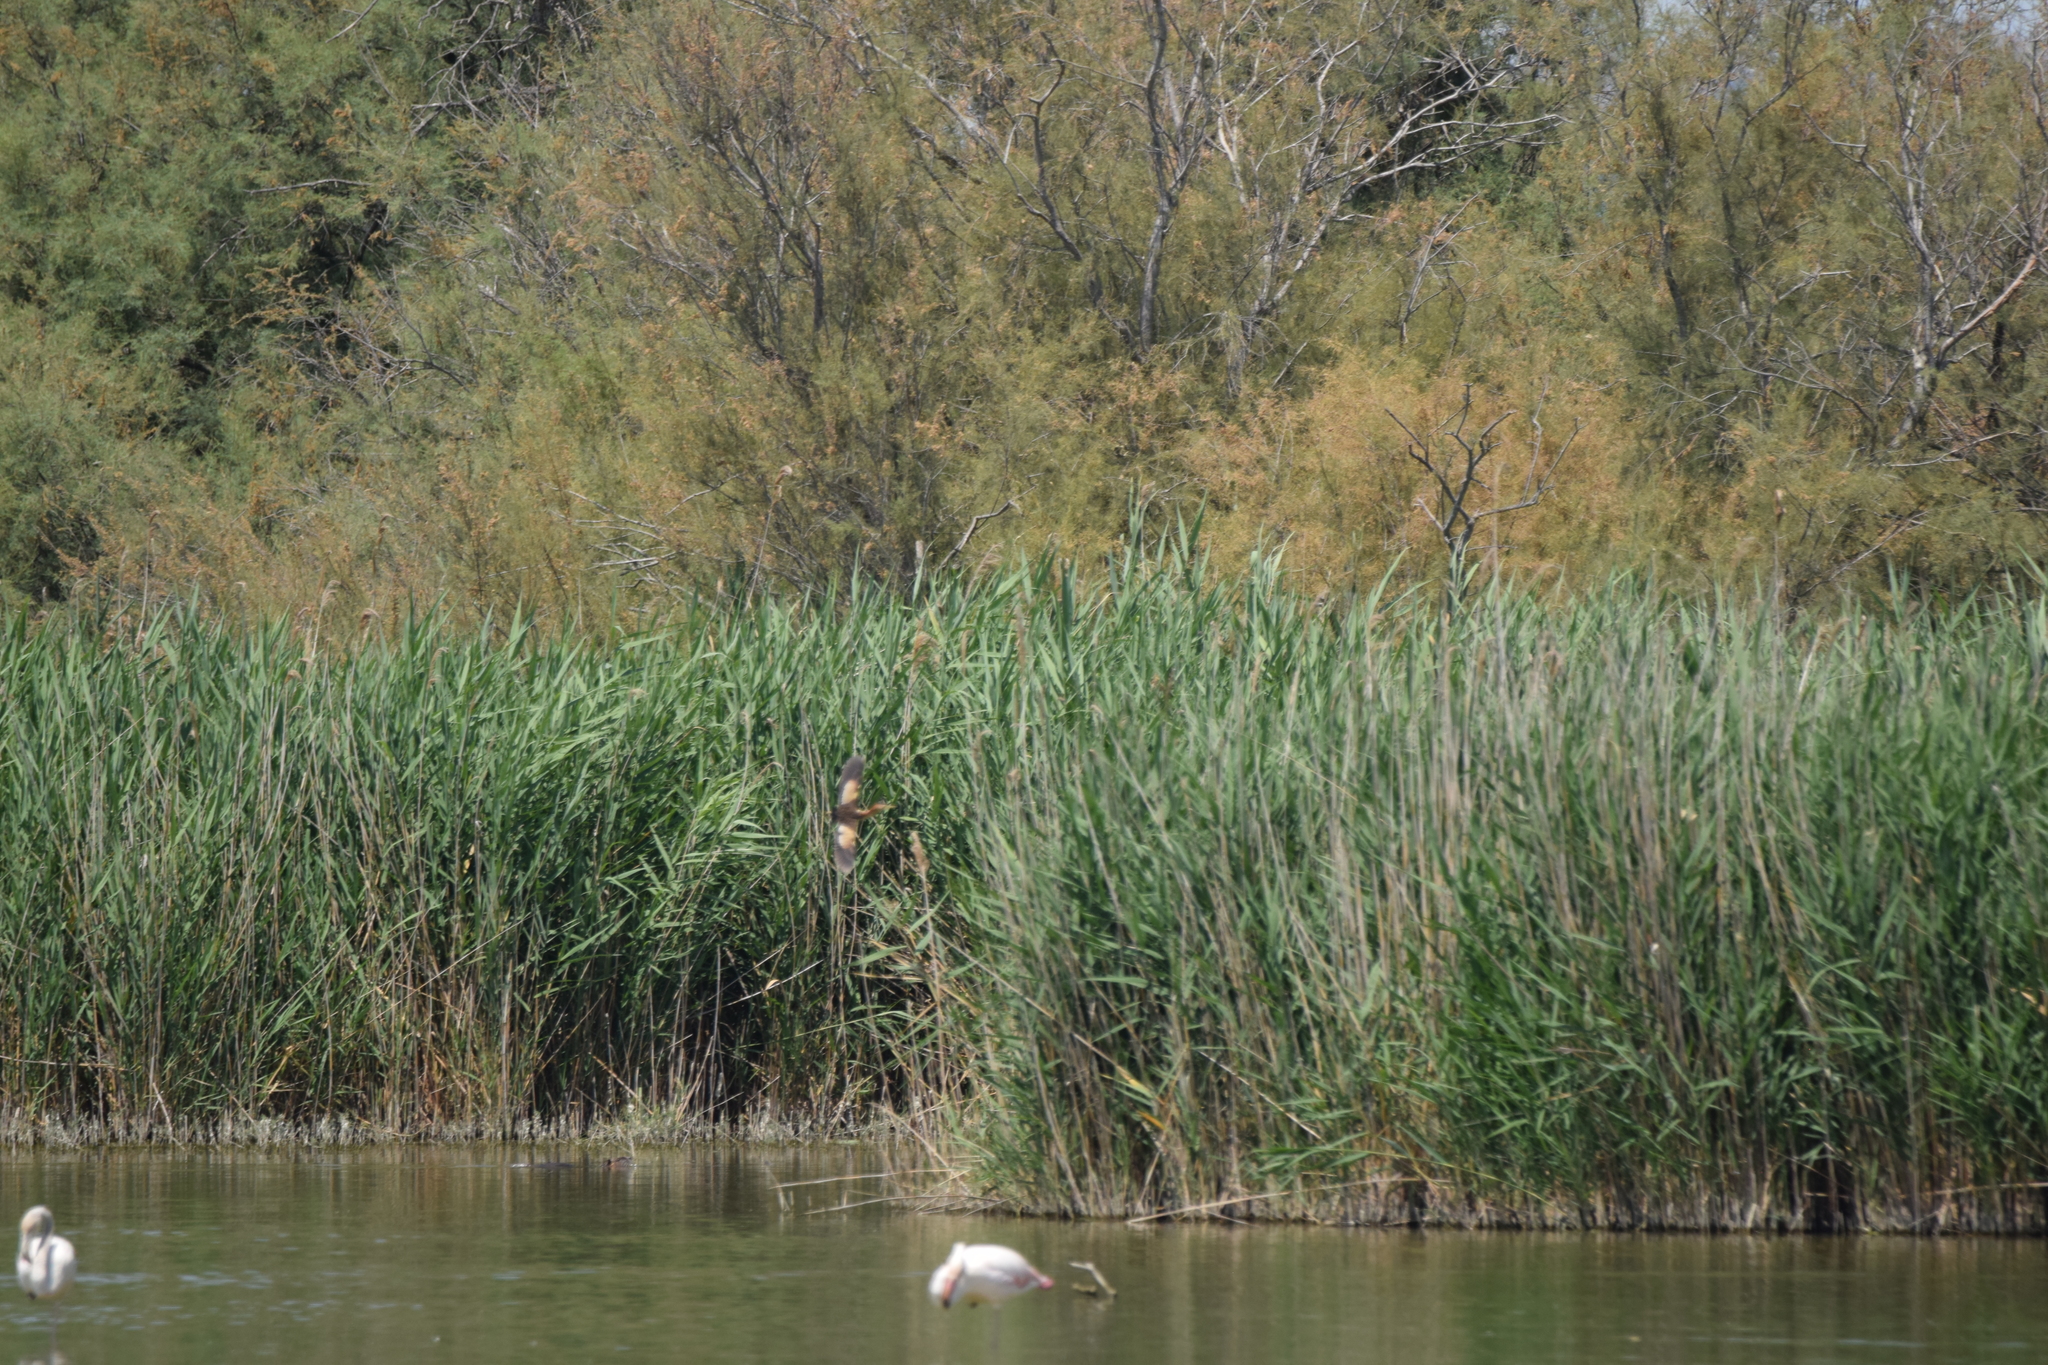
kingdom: Animalia
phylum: Chordata
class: Aves
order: Pelecaniformes
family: Ardeidae
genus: Ixobrychus
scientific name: Ixobrychus minutus
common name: Little bittern
